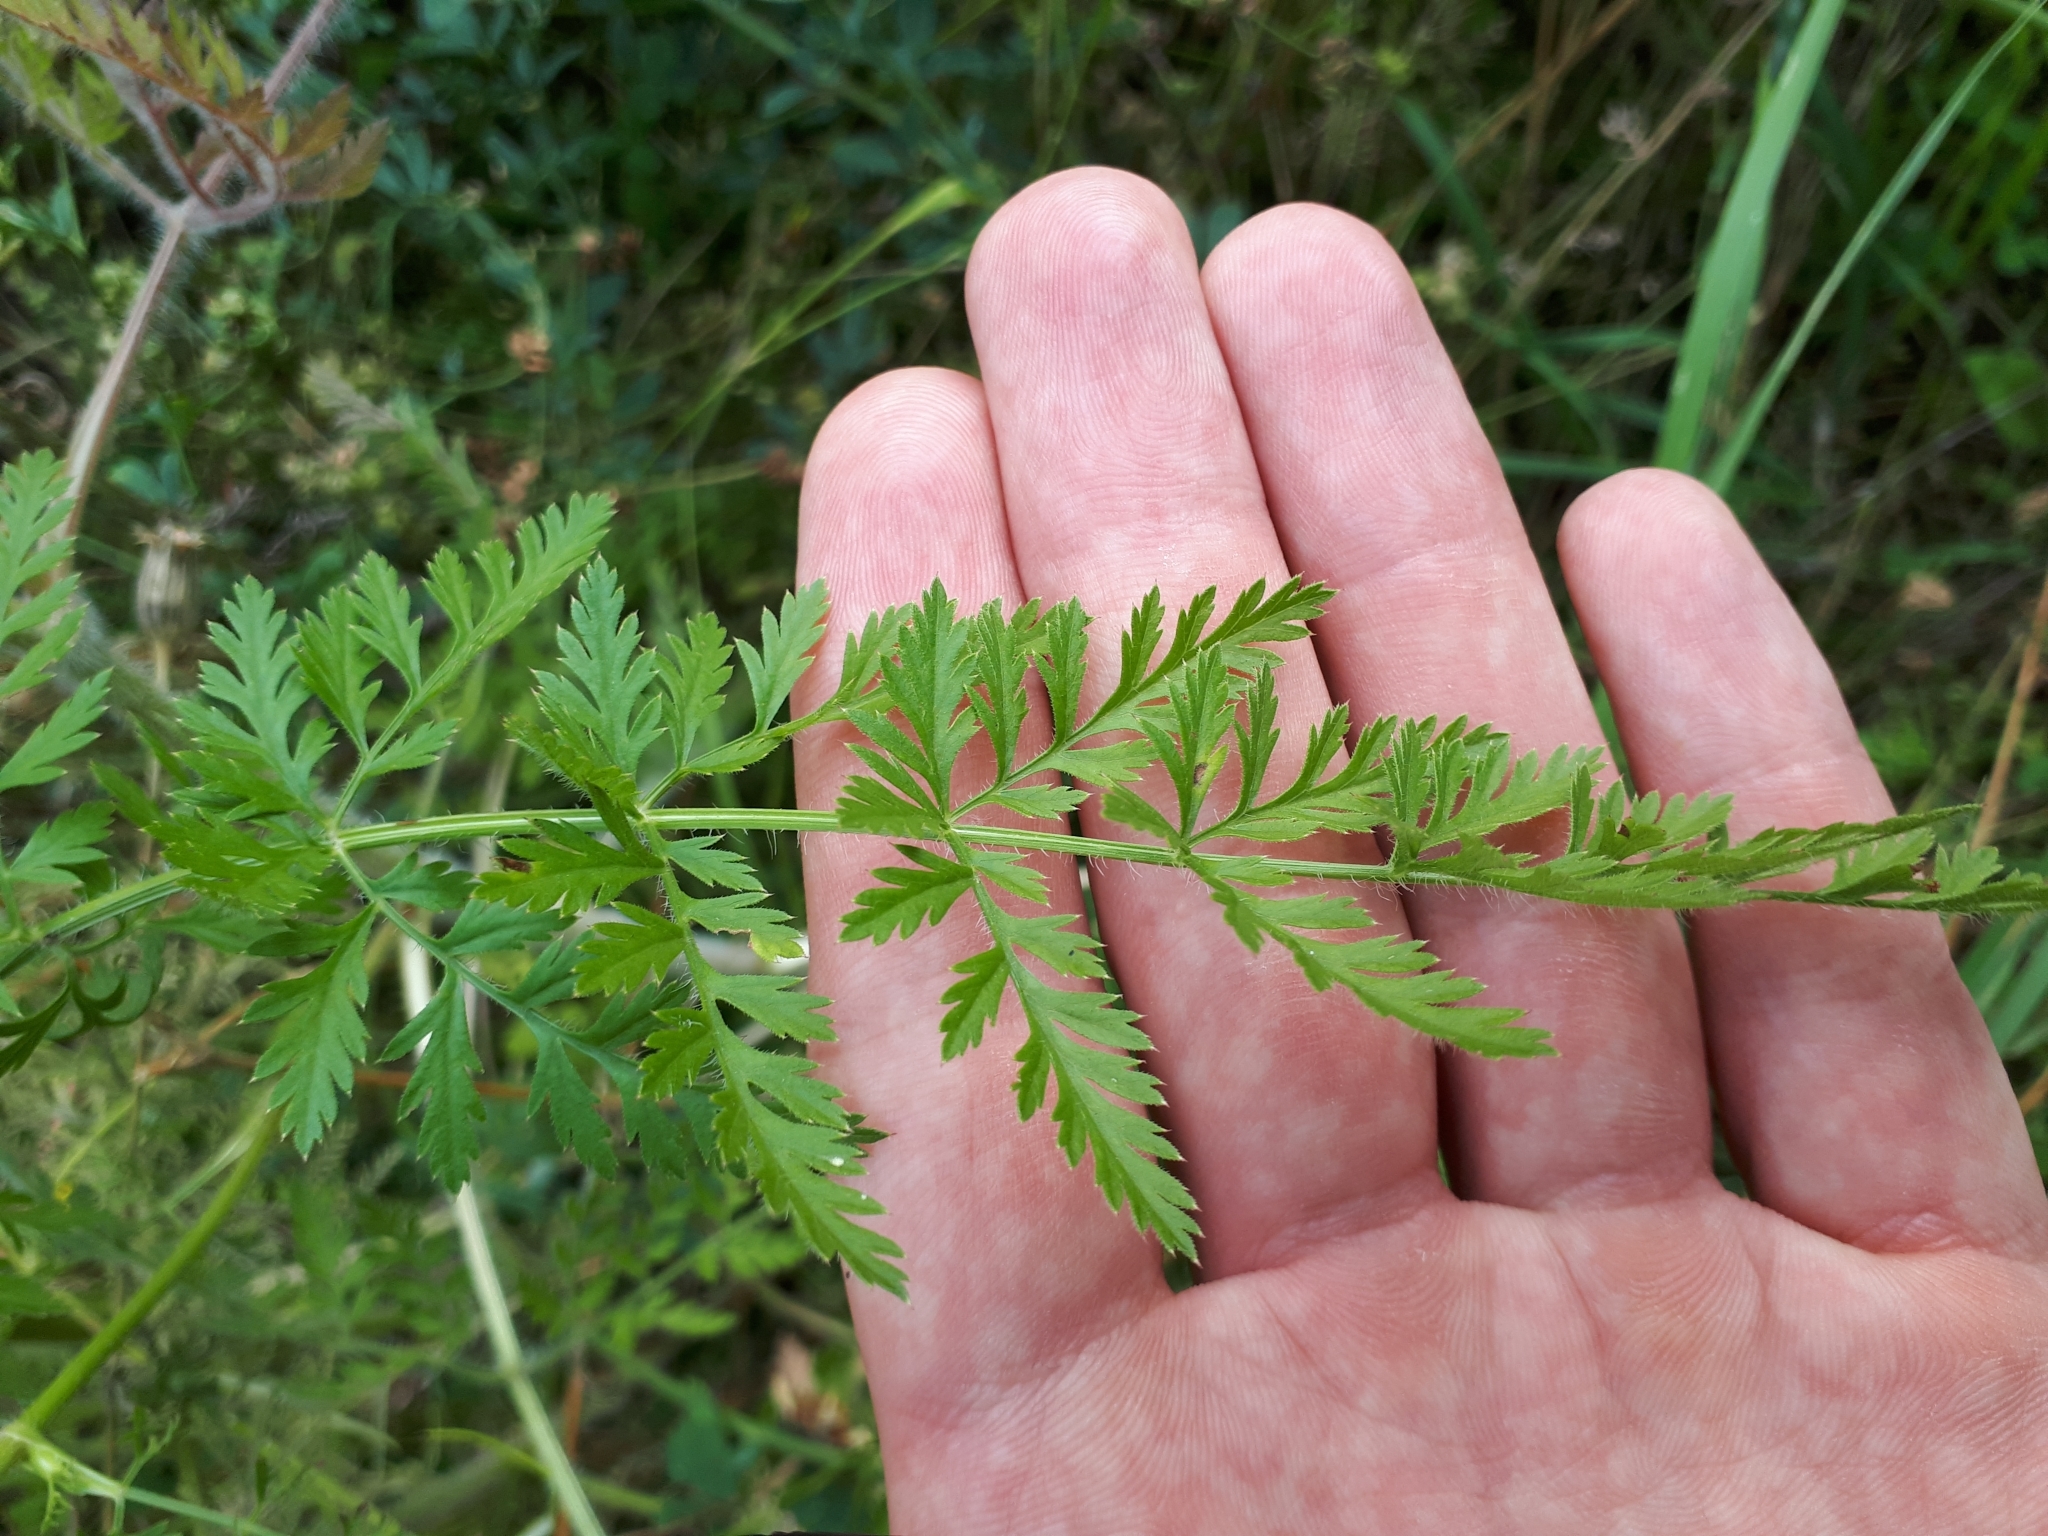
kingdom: Plantae
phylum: Tracheophyta
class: Magnoliopsida
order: Apiales
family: Apiaceae
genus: Daucus
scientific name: Daucus carota
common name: Wild carrot
